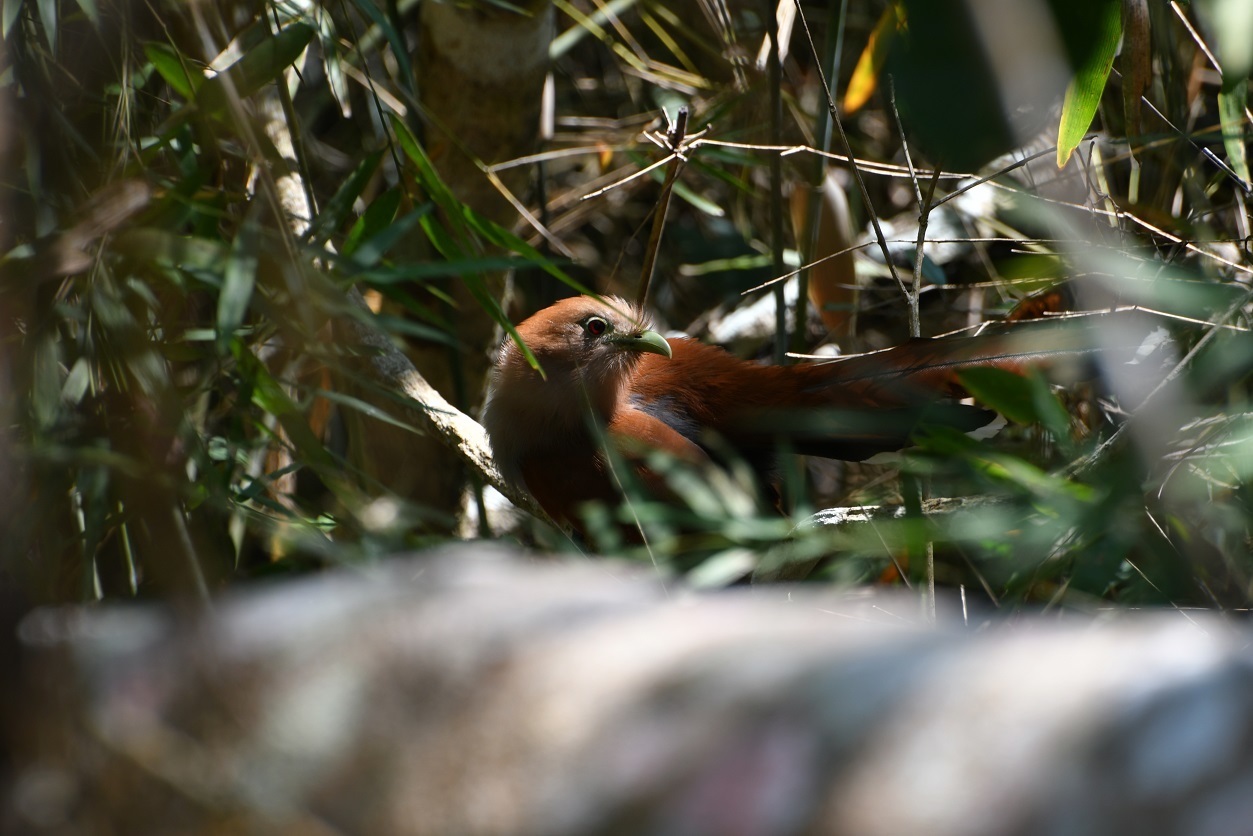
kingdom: Animalia
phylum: Chordata
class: Aves
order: Cuculiformes
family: Cuculidae
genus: Piaya
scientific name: Piaya cayana
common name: Squirrel cuckoo
